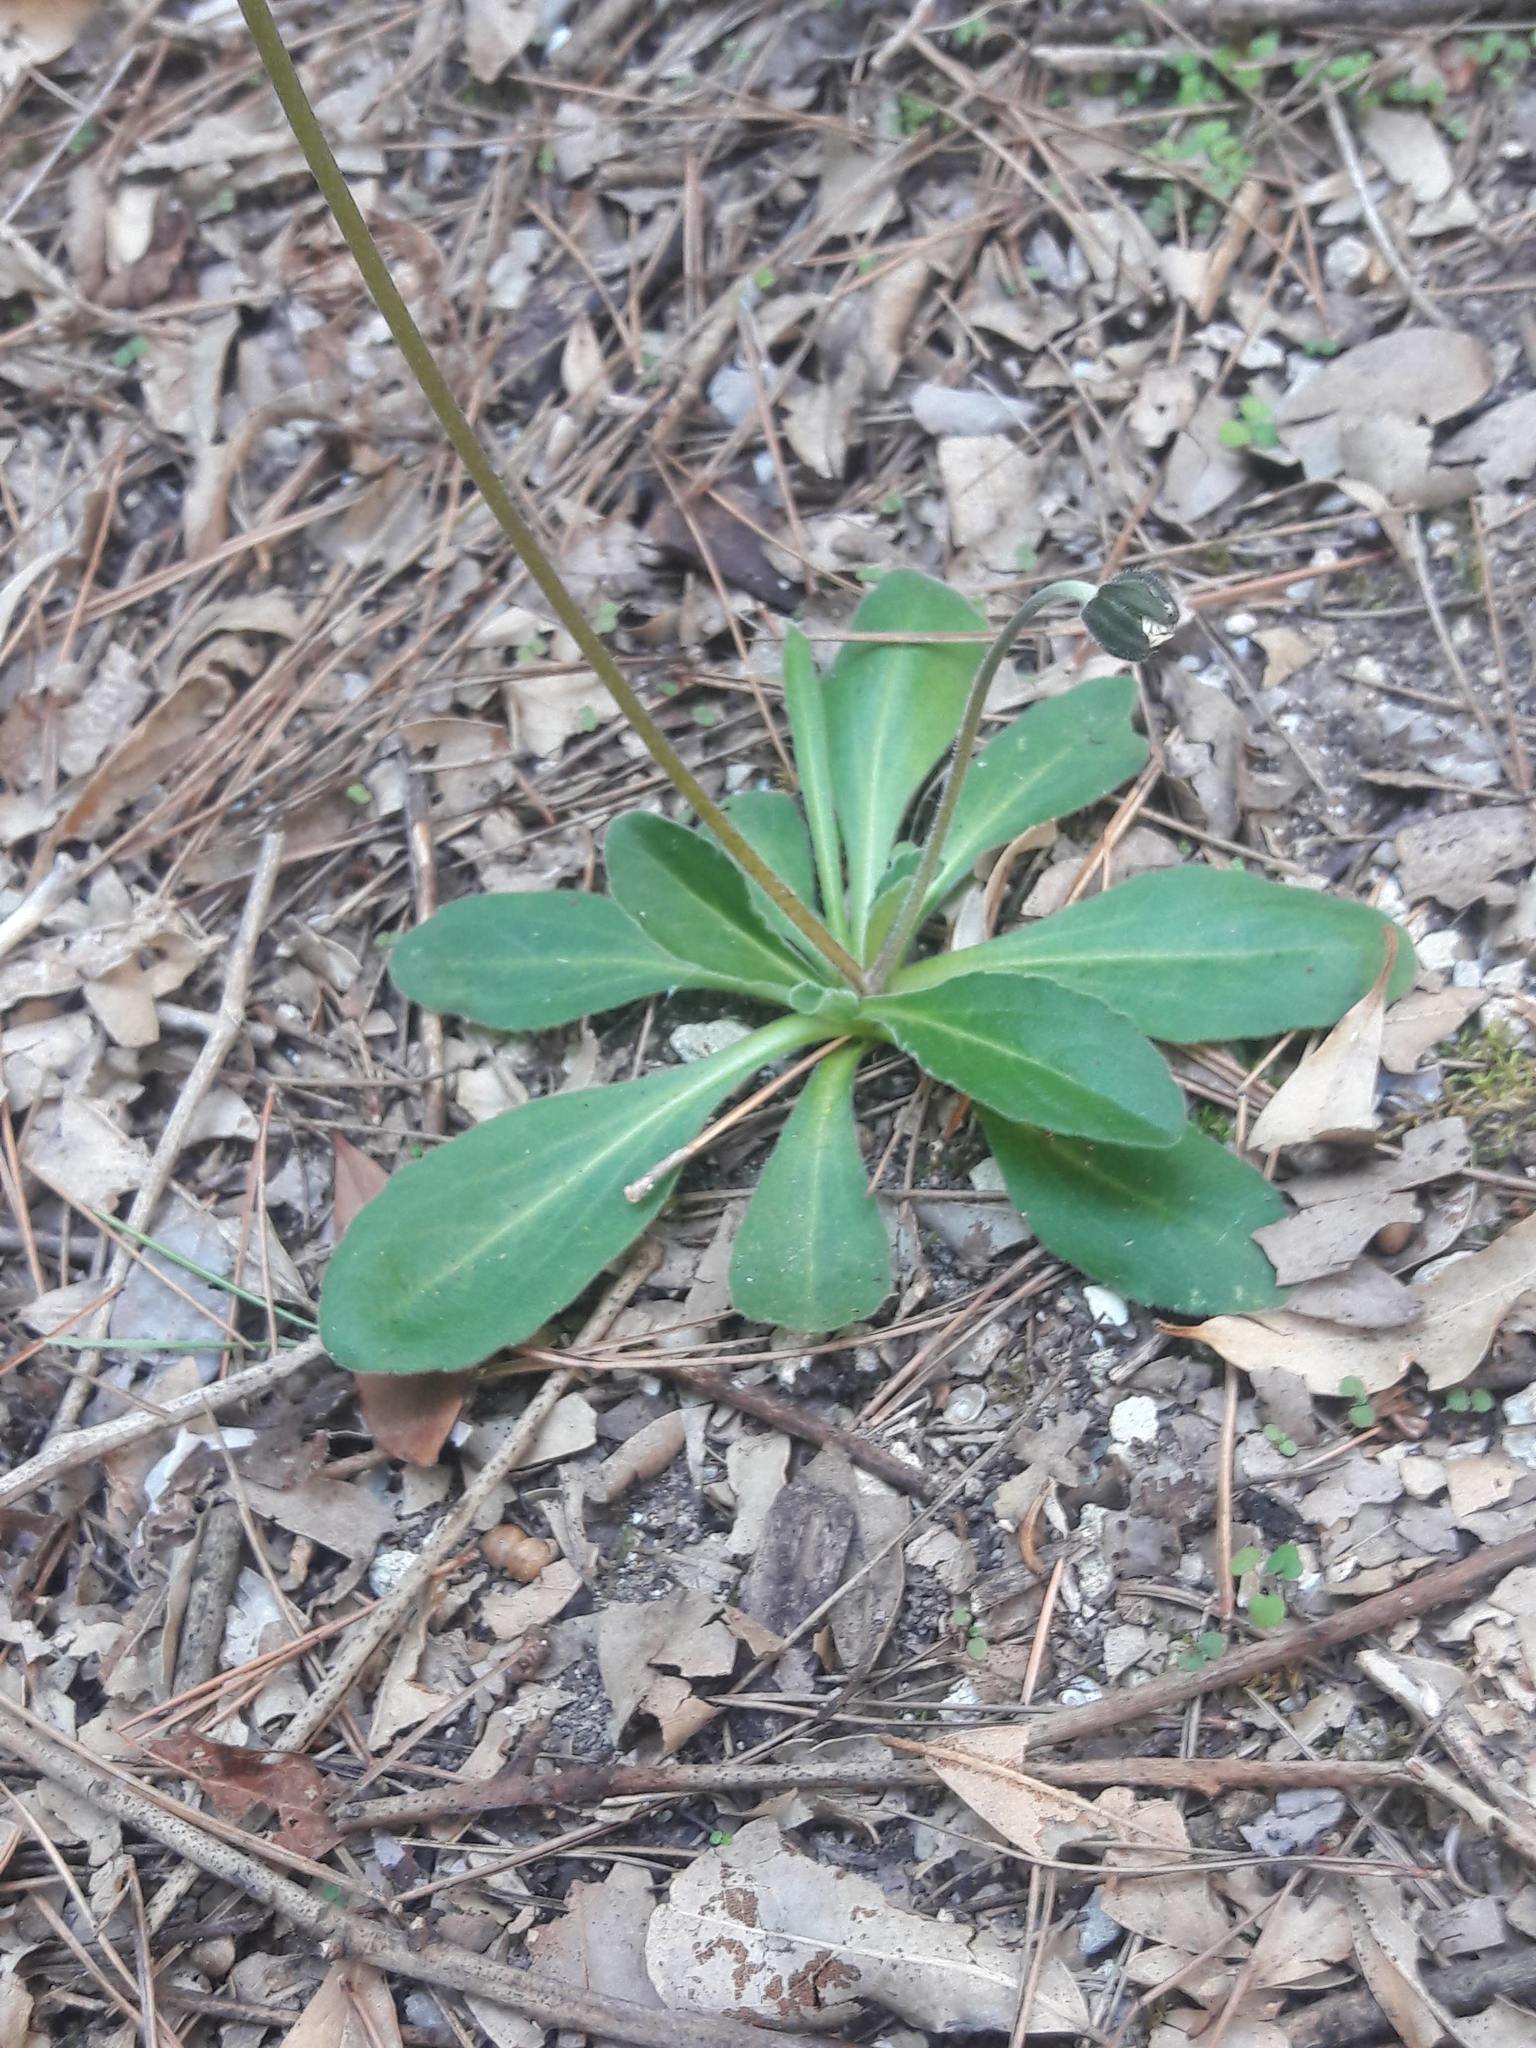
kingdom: Plantae
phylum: Tracheophyta
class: Magnoliopsida
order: Asterales
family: Asteraceae
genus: Bellis
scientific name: Bellis sylvestris
